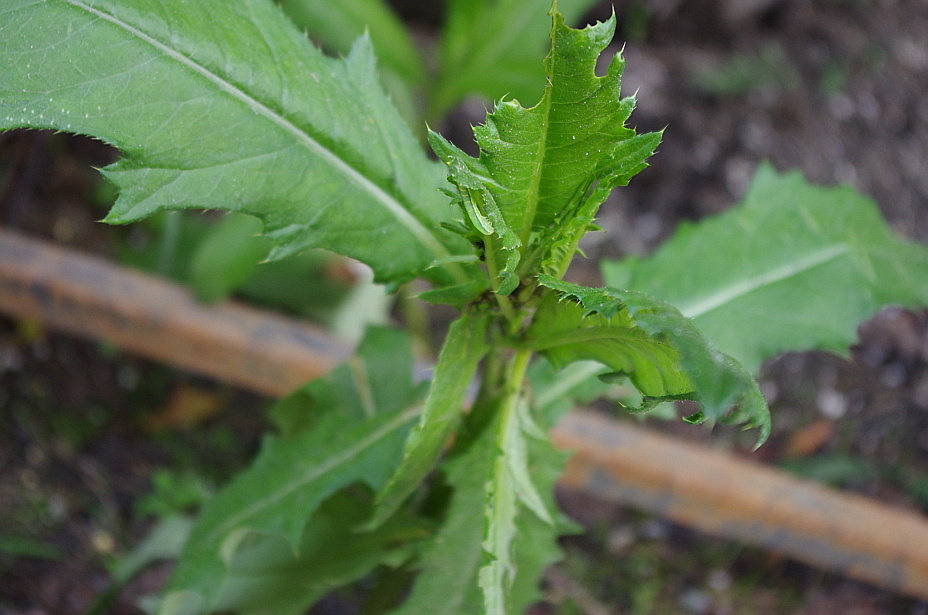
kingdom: Plantae
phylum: Tracheophyta
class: Magnoliopsida
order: Asterales
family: Asteraceae
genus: Cirsium
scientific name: Cirsium arvense
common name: Creeping thistle
